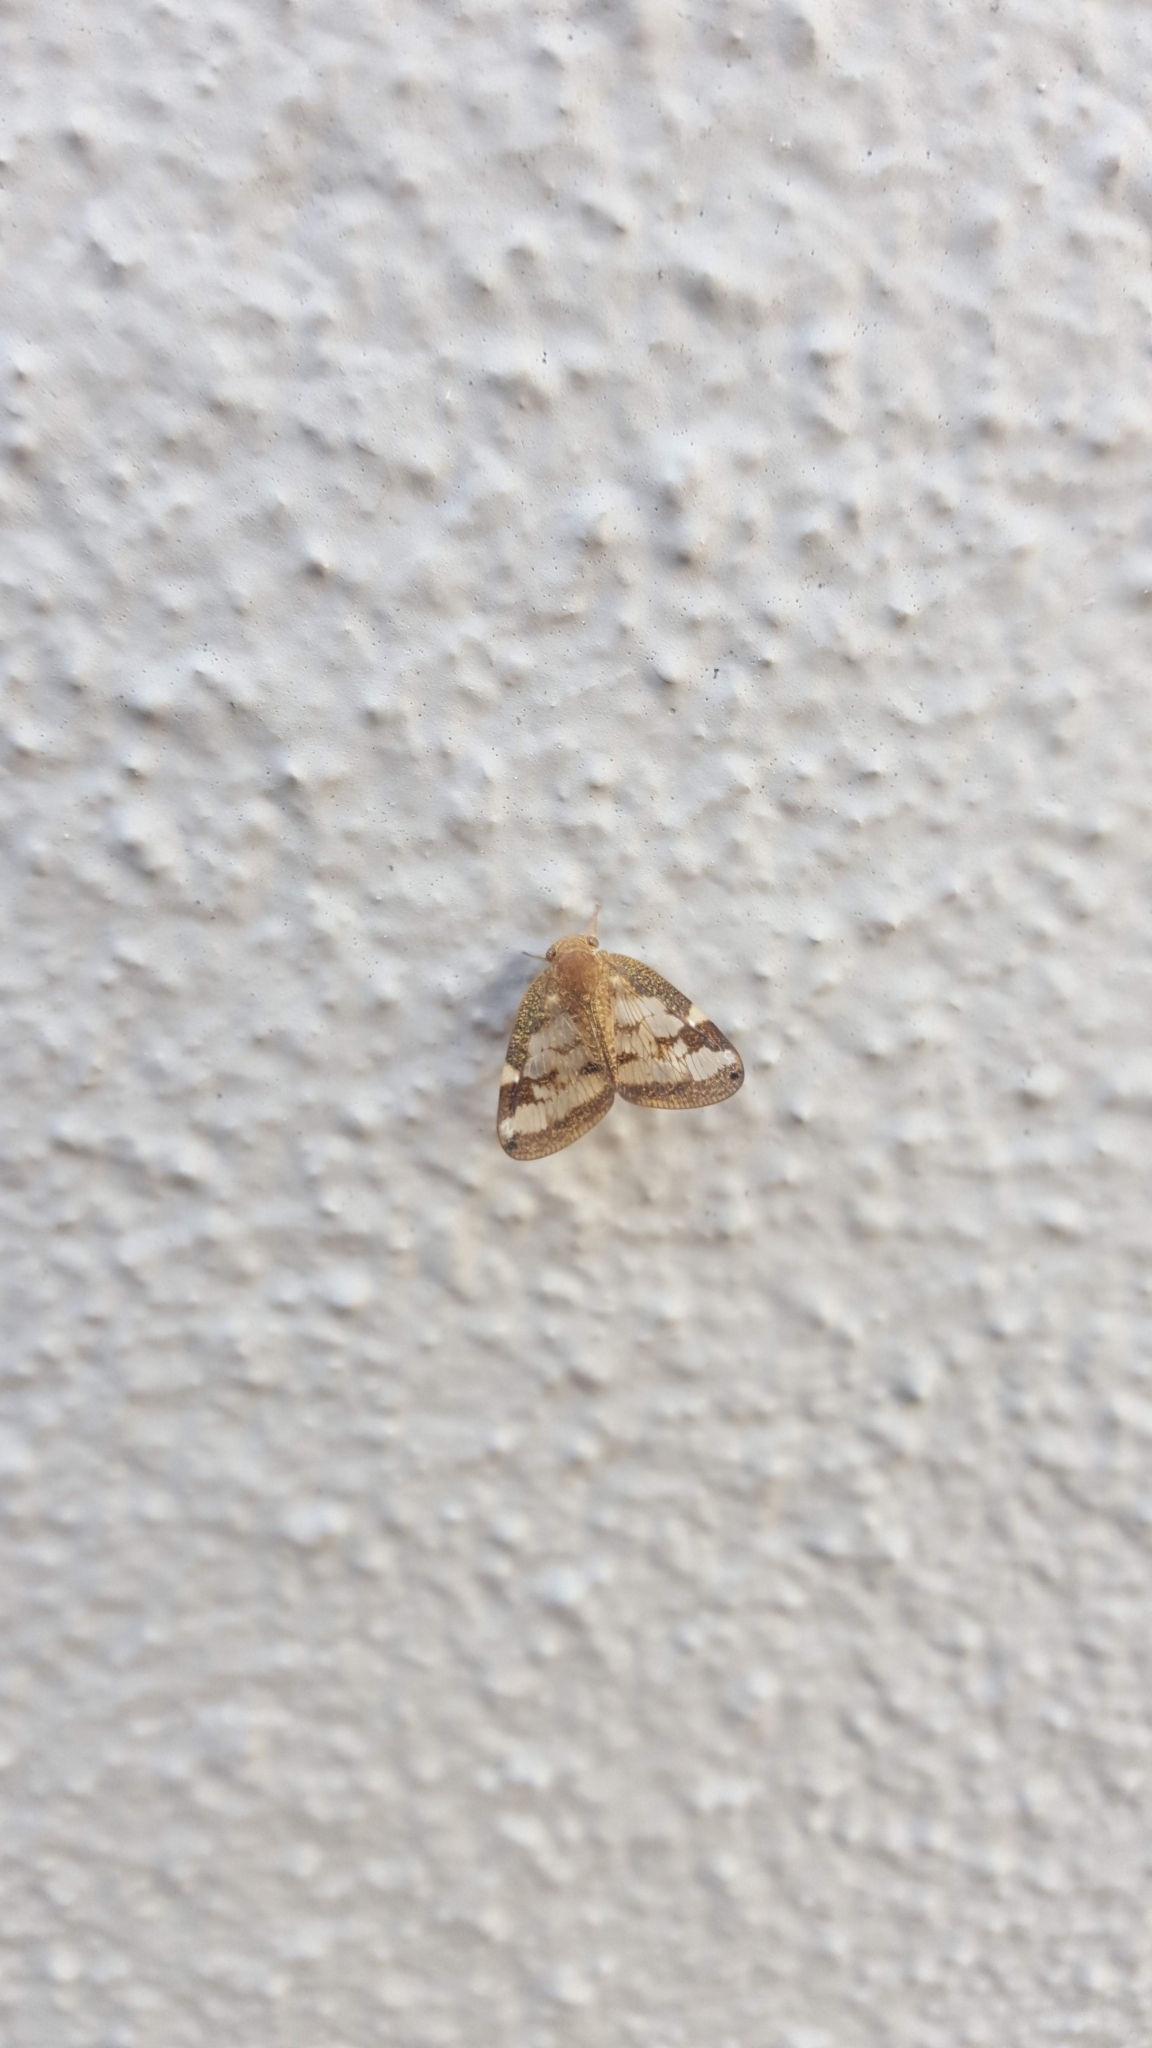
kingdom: Animalia
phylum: Arthropoda
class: Insecta
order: Hemiptera
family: Ricaniidae
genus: Scolypopa
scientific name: Scolypopa australis
